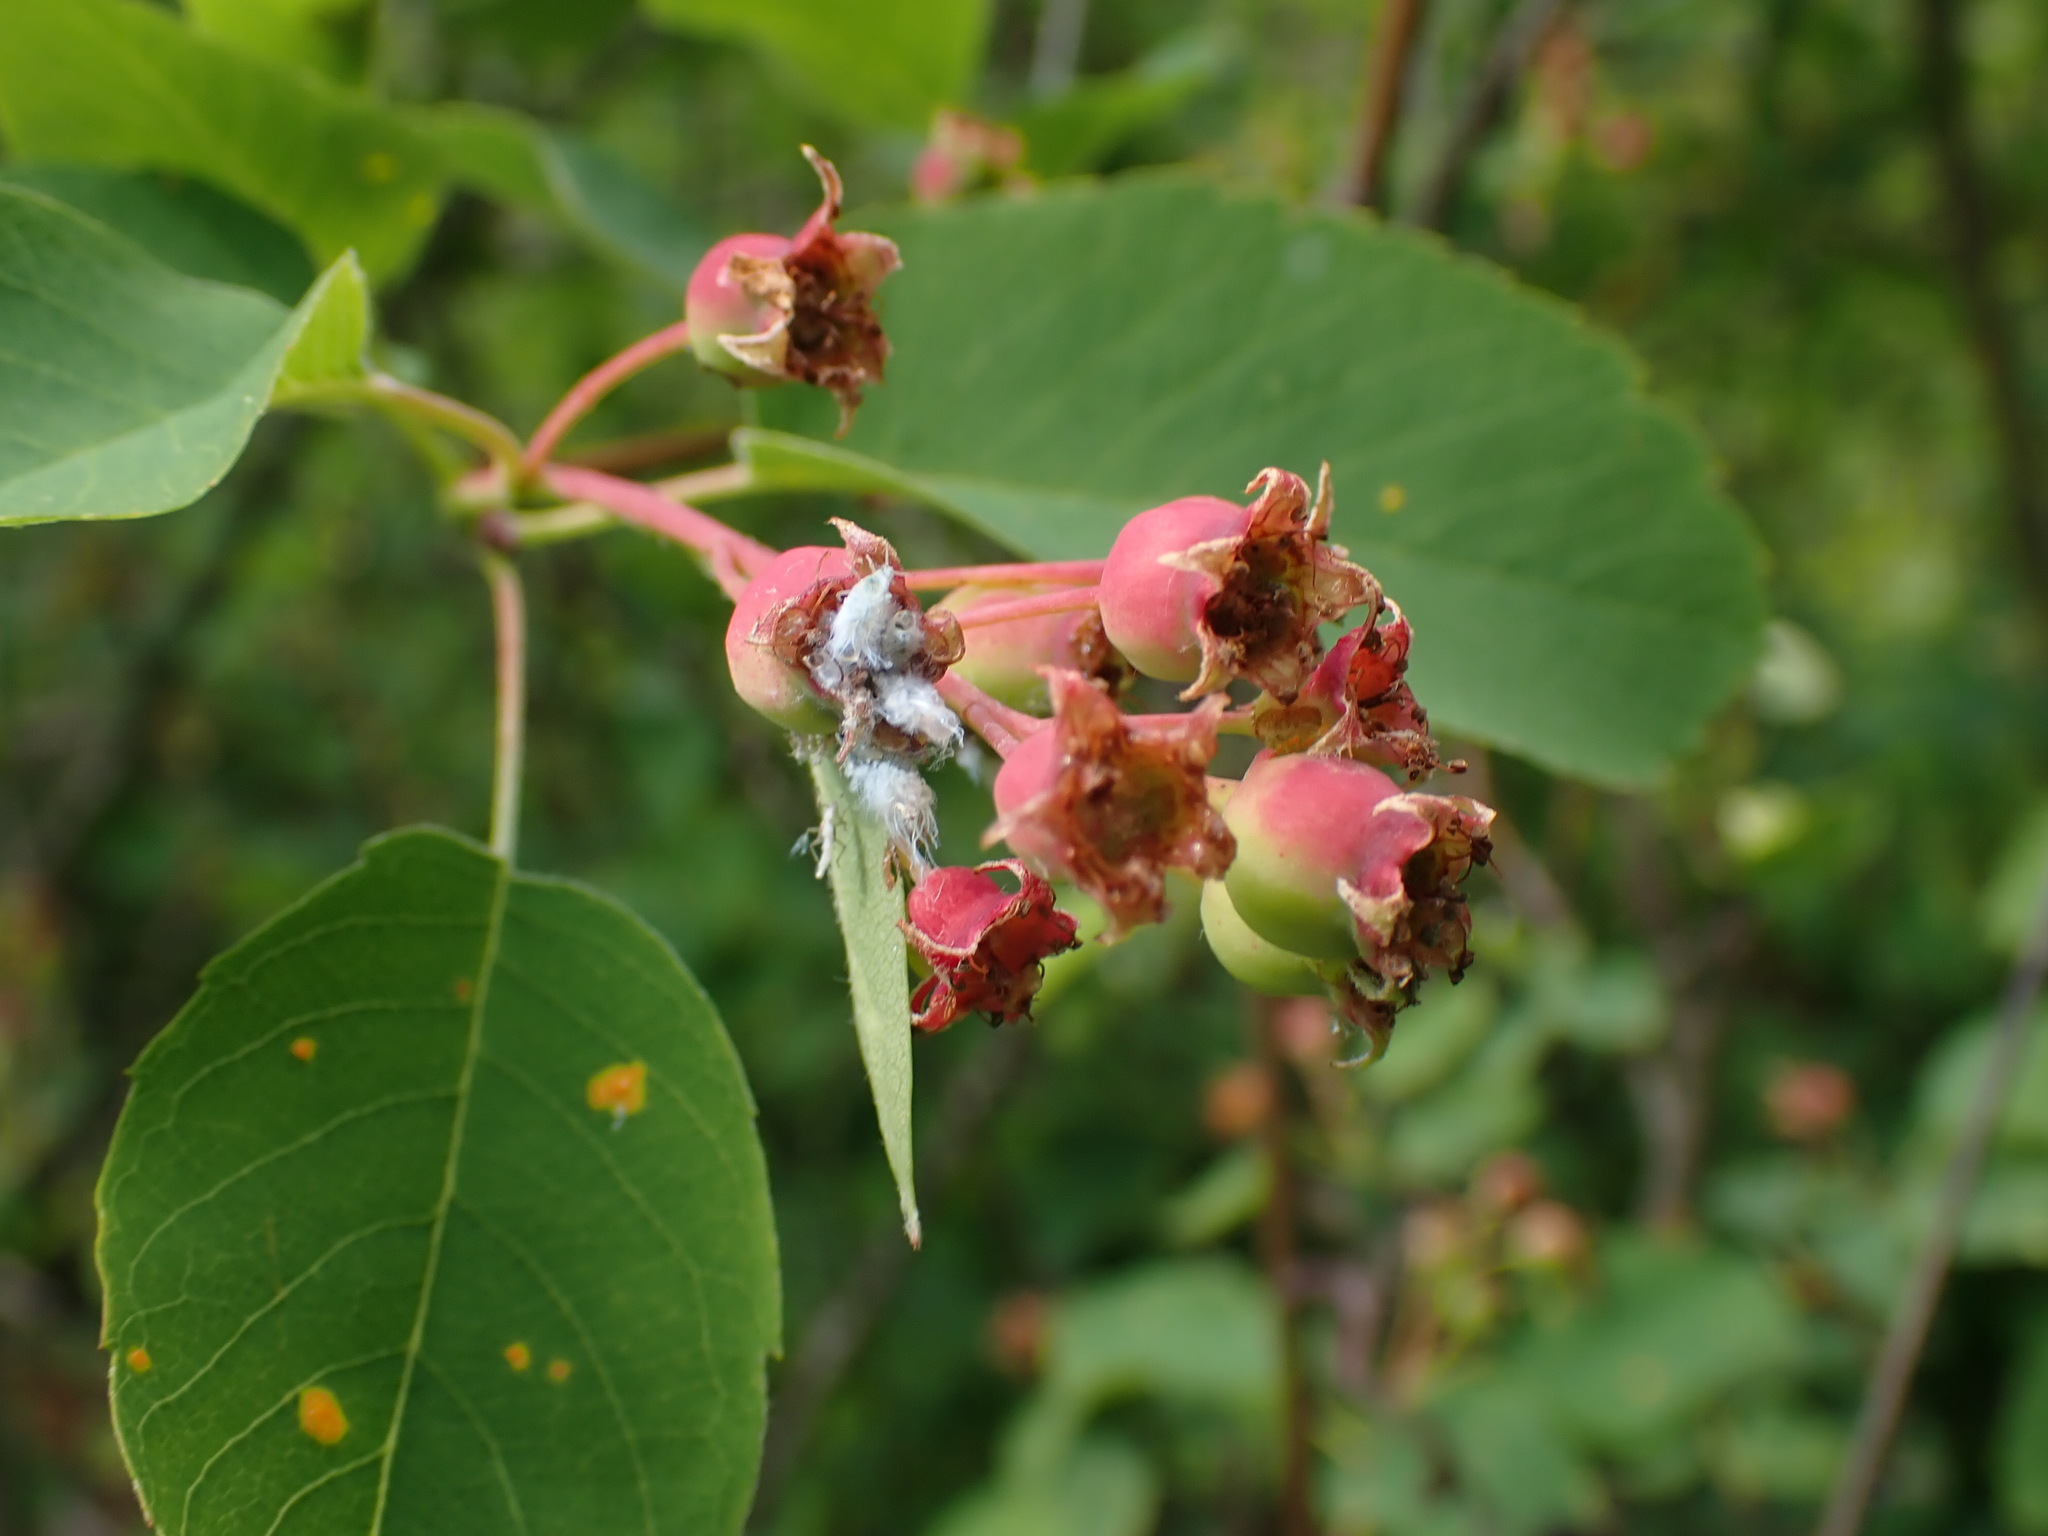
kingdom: Plantae
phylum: Tracheophyta
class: Magnoliopsida
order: Rosales
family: Rosaceae
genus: Amelanchier
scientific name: Amelanchier alnifolia
